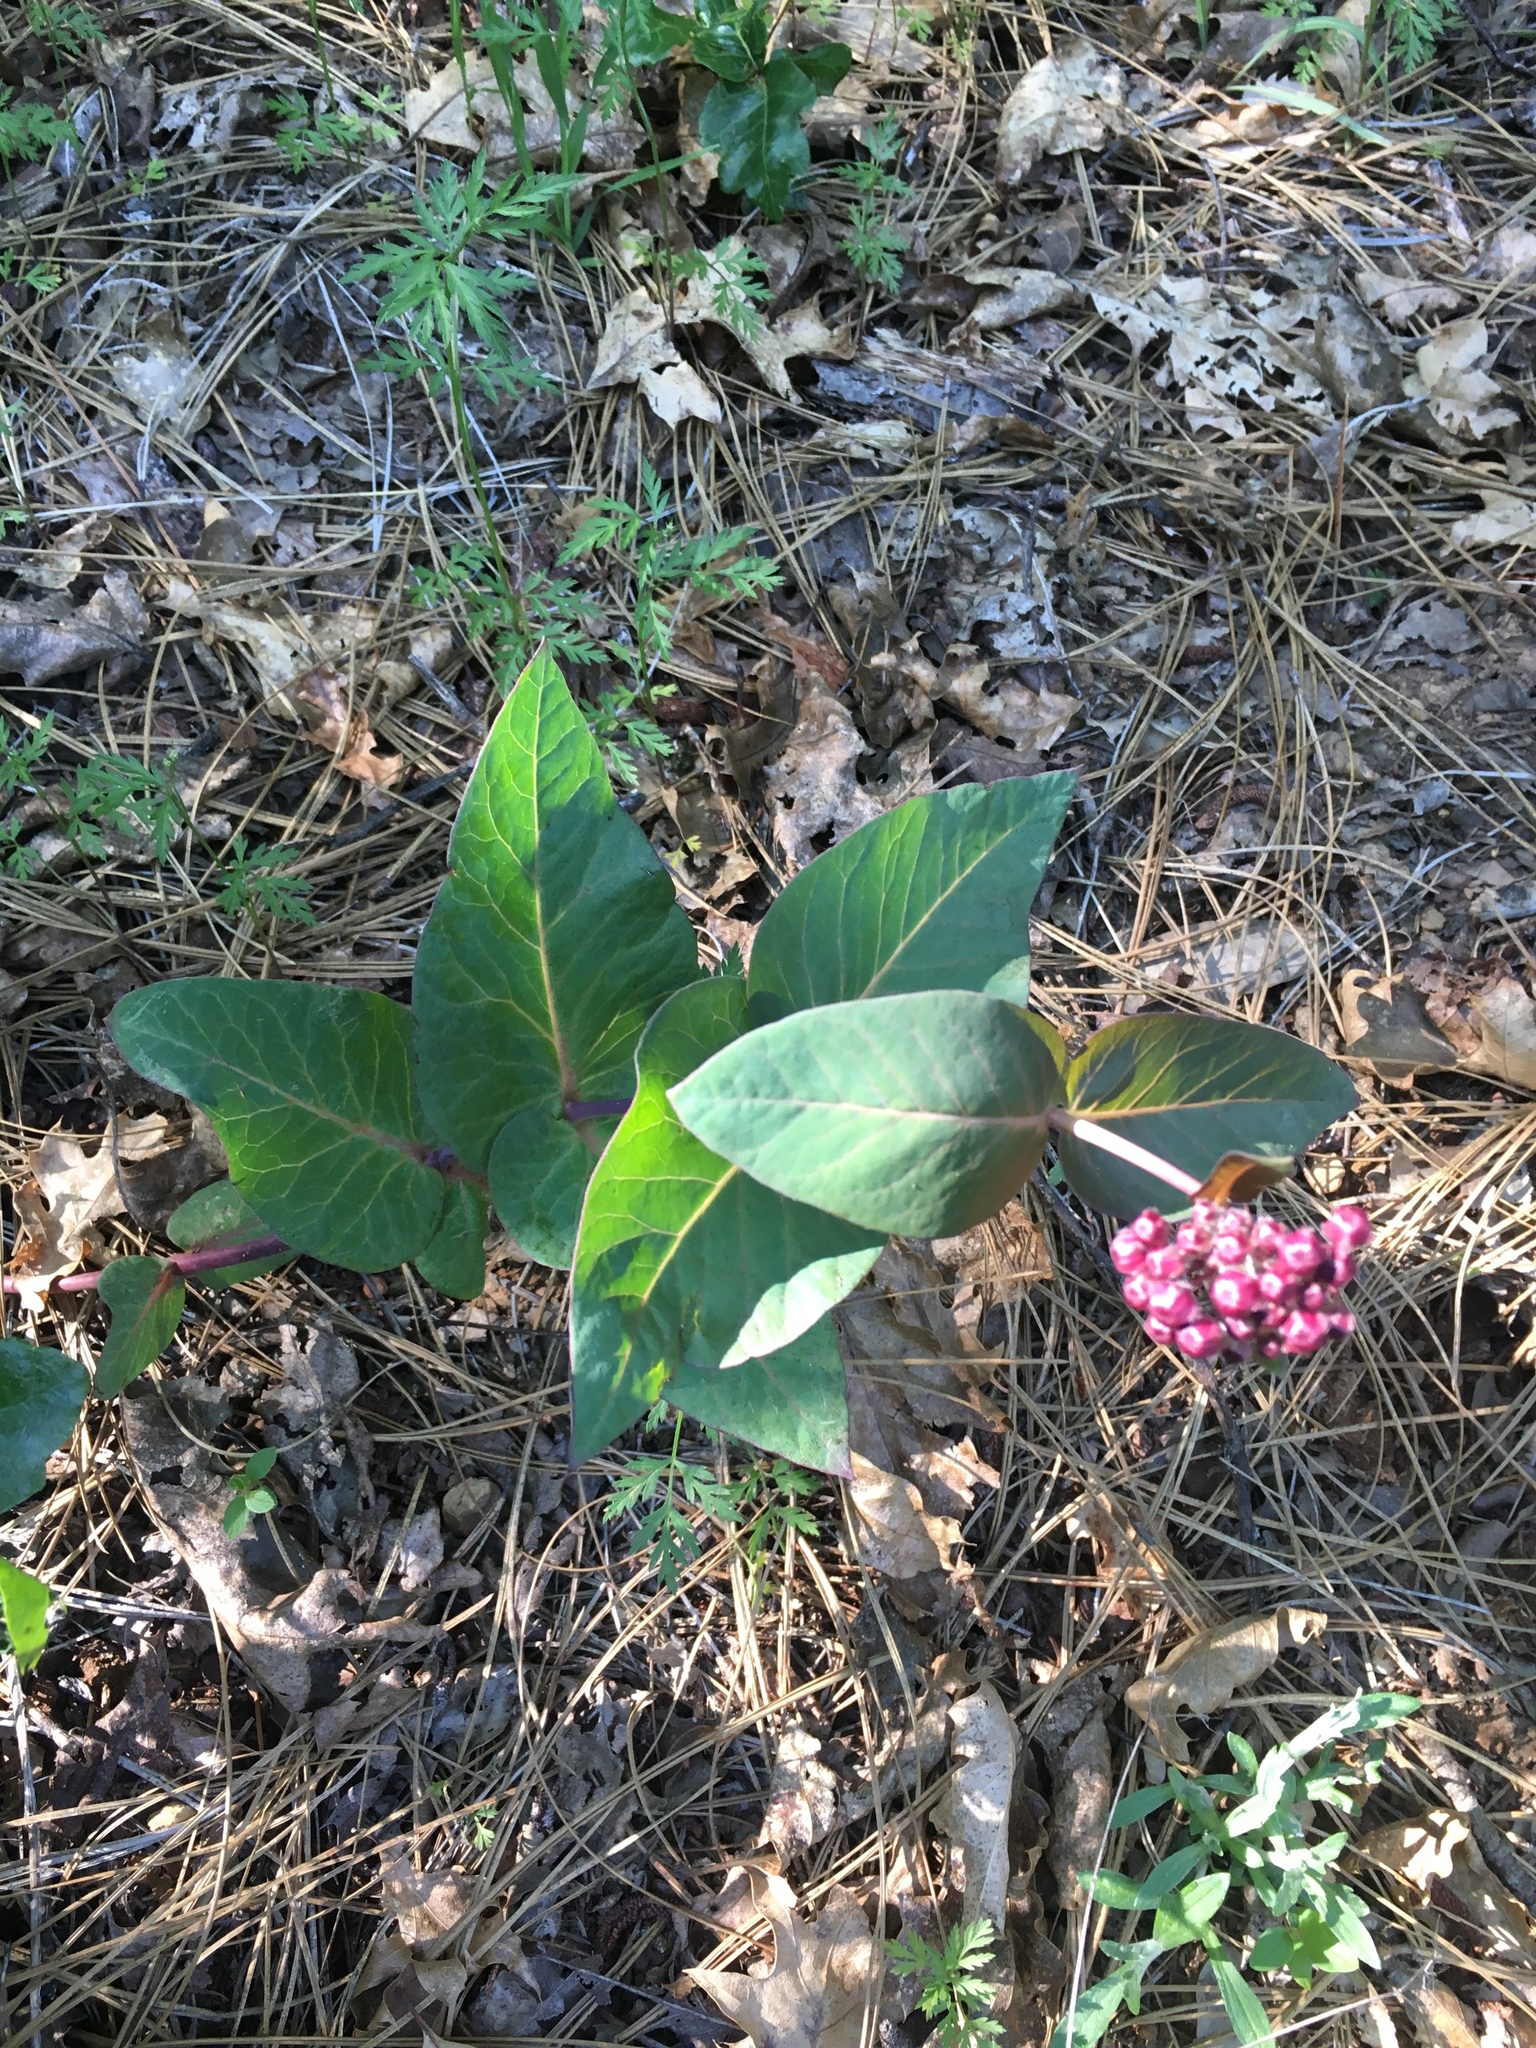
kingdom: Plantae
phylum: Tracheophyta
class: Magnoliopsida
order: Gentianales
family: Apocynaceae
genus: Asclepias
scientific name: Asclepias cordifolia
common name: Purple milkweed
